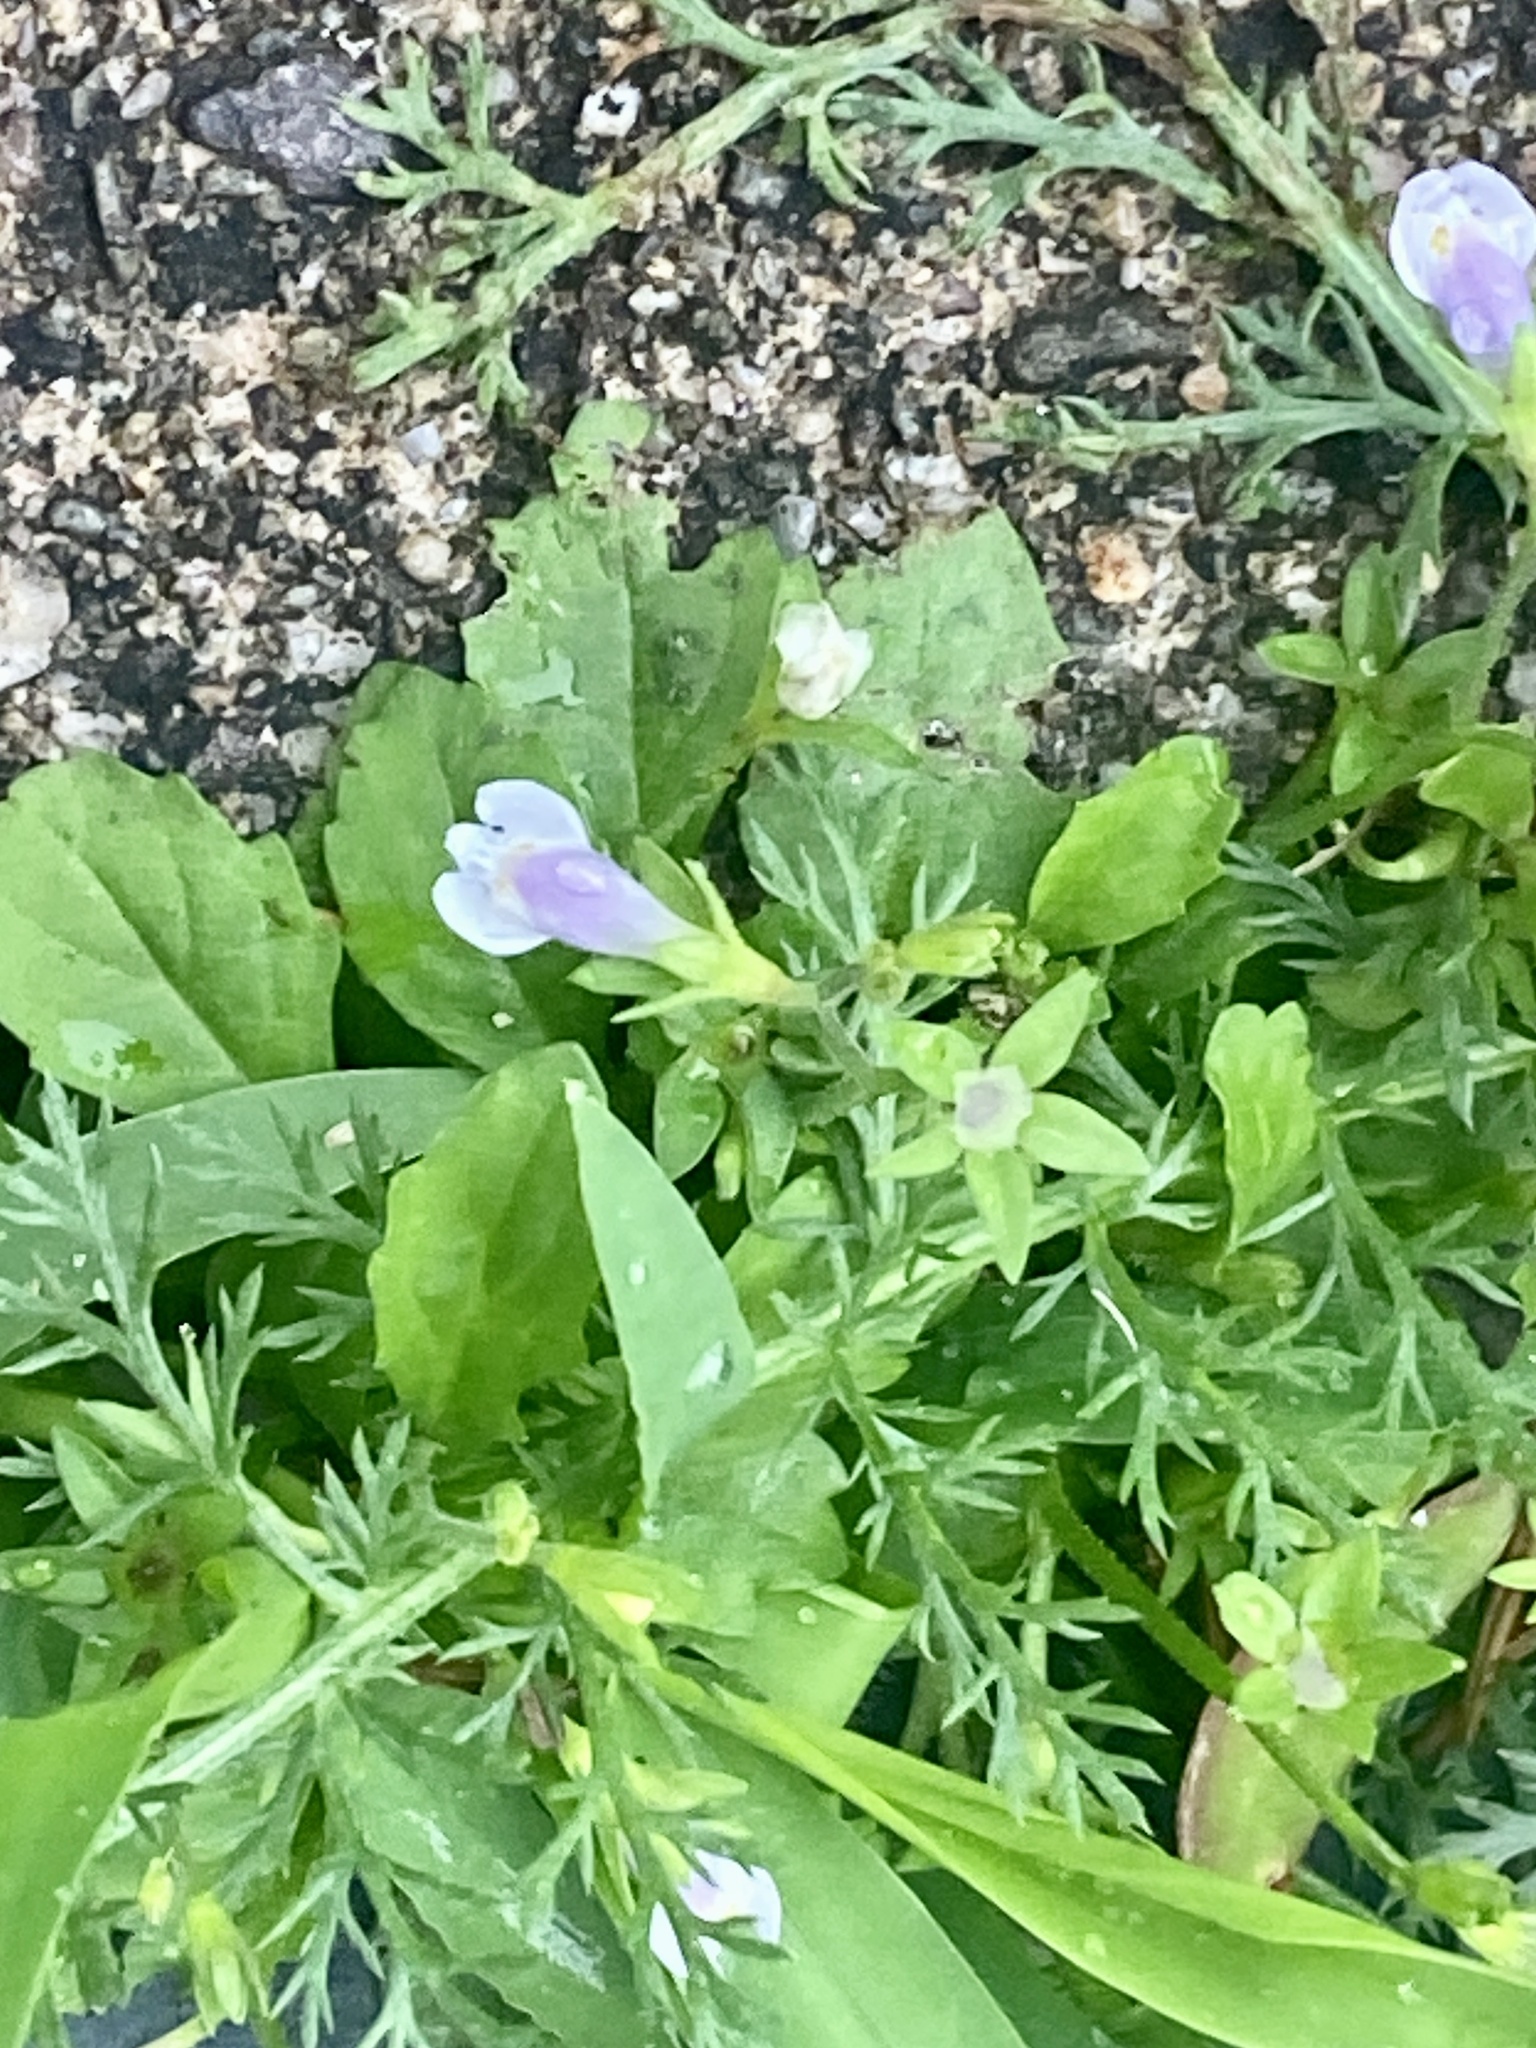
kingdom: Plantae
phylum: Tracheophyta
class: Magnoliopsida
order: Lamiales
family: Mazaceae
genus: Mazus
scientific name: Mazus pumilus
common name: Japanese mazus
